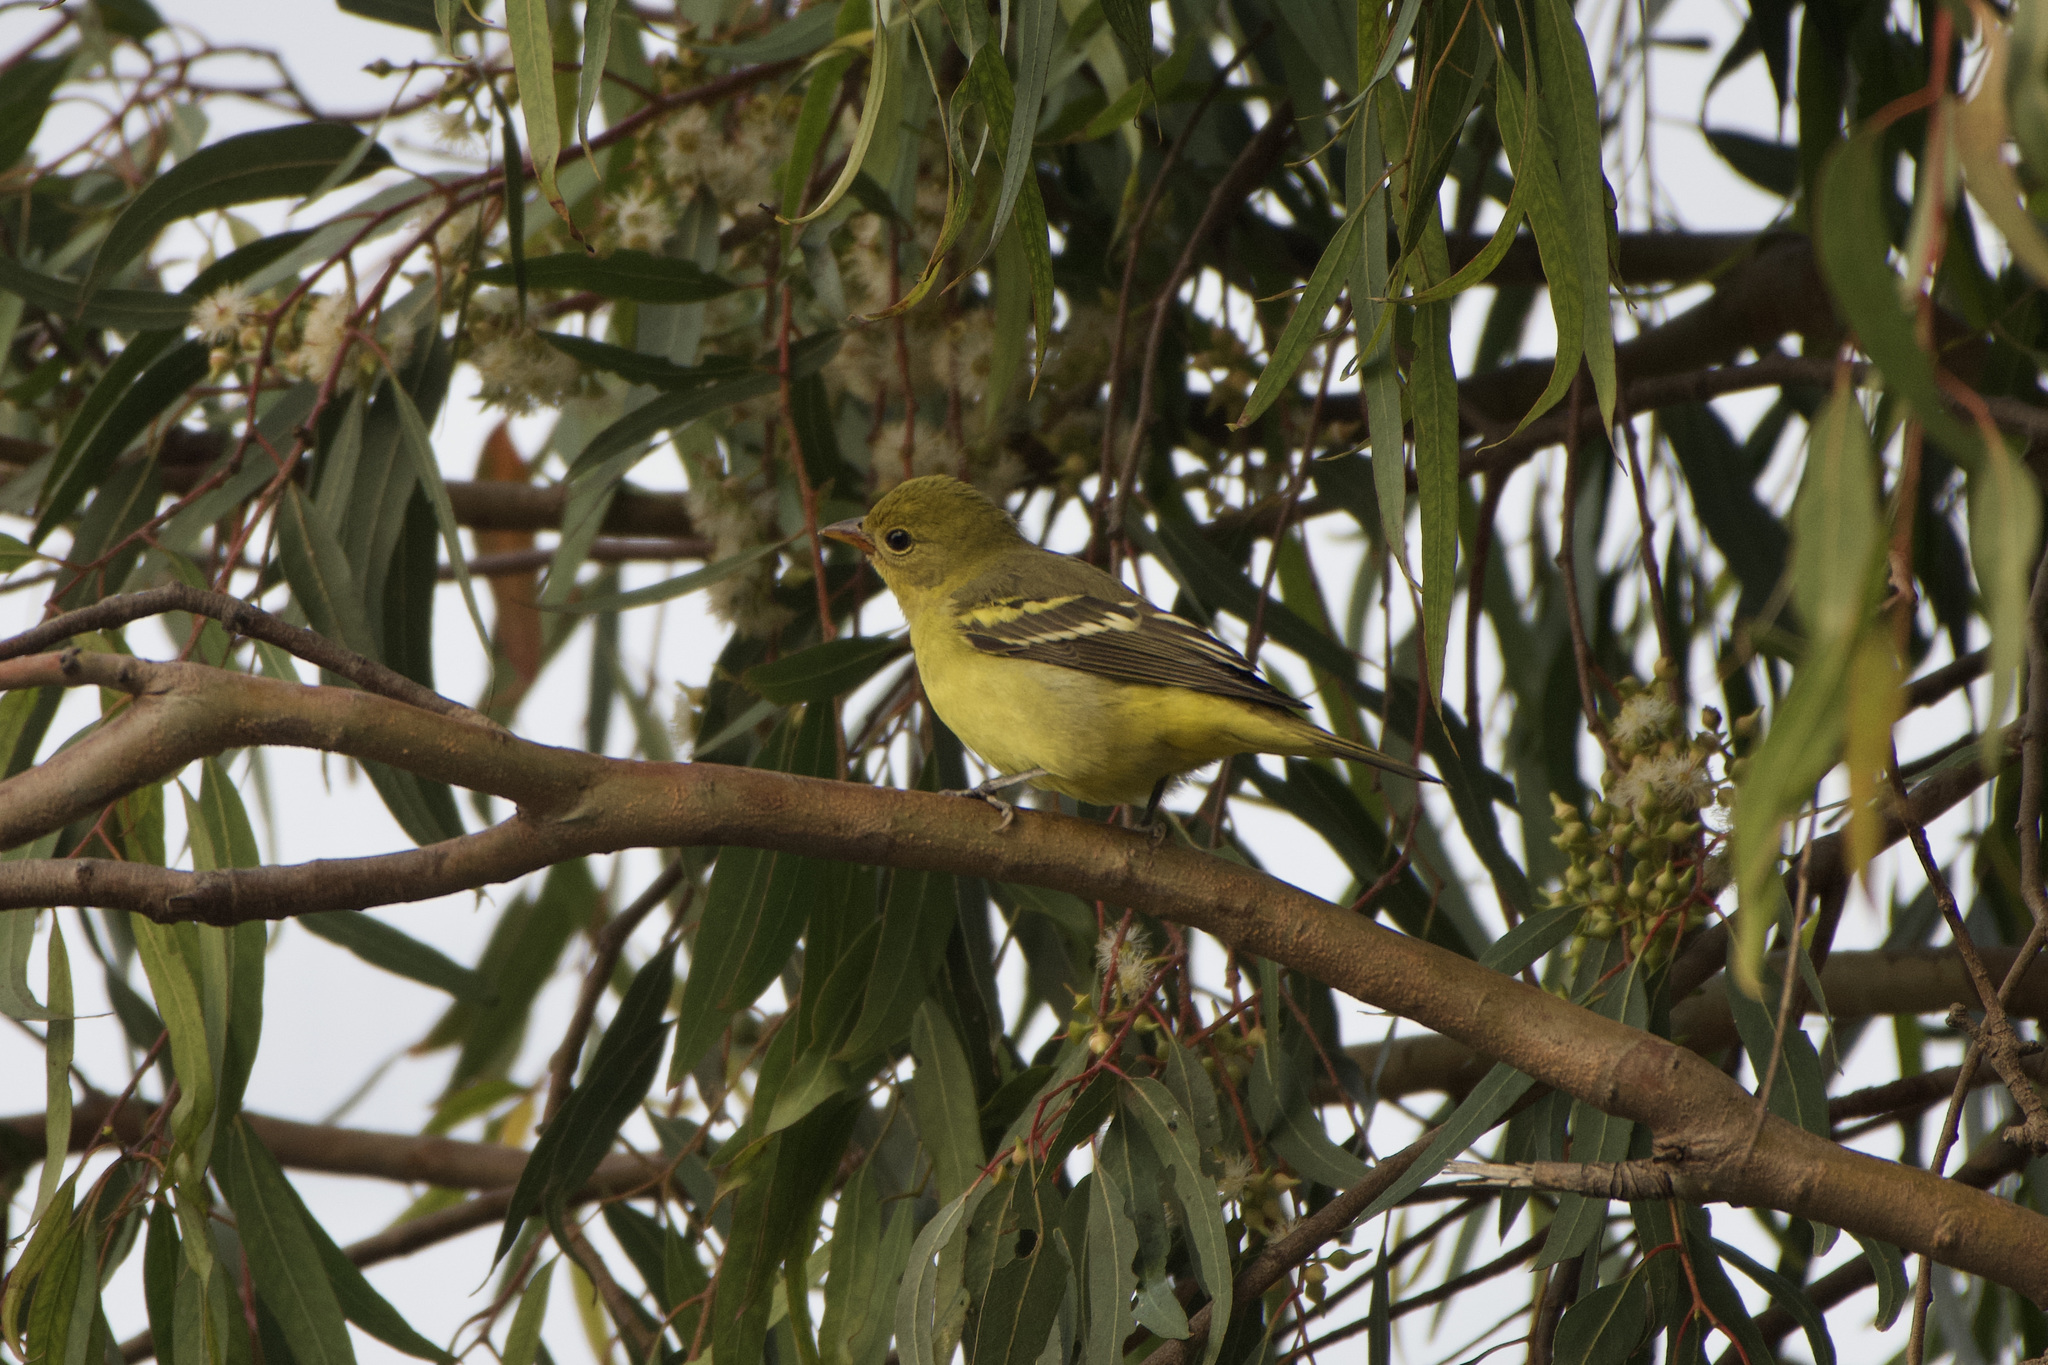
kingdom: Animalia
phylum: Chordata
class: Aves
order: Passeriformes
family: Cardinalidae
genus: Piranga
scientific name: Piranga ludoviciana
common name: Western tanager
